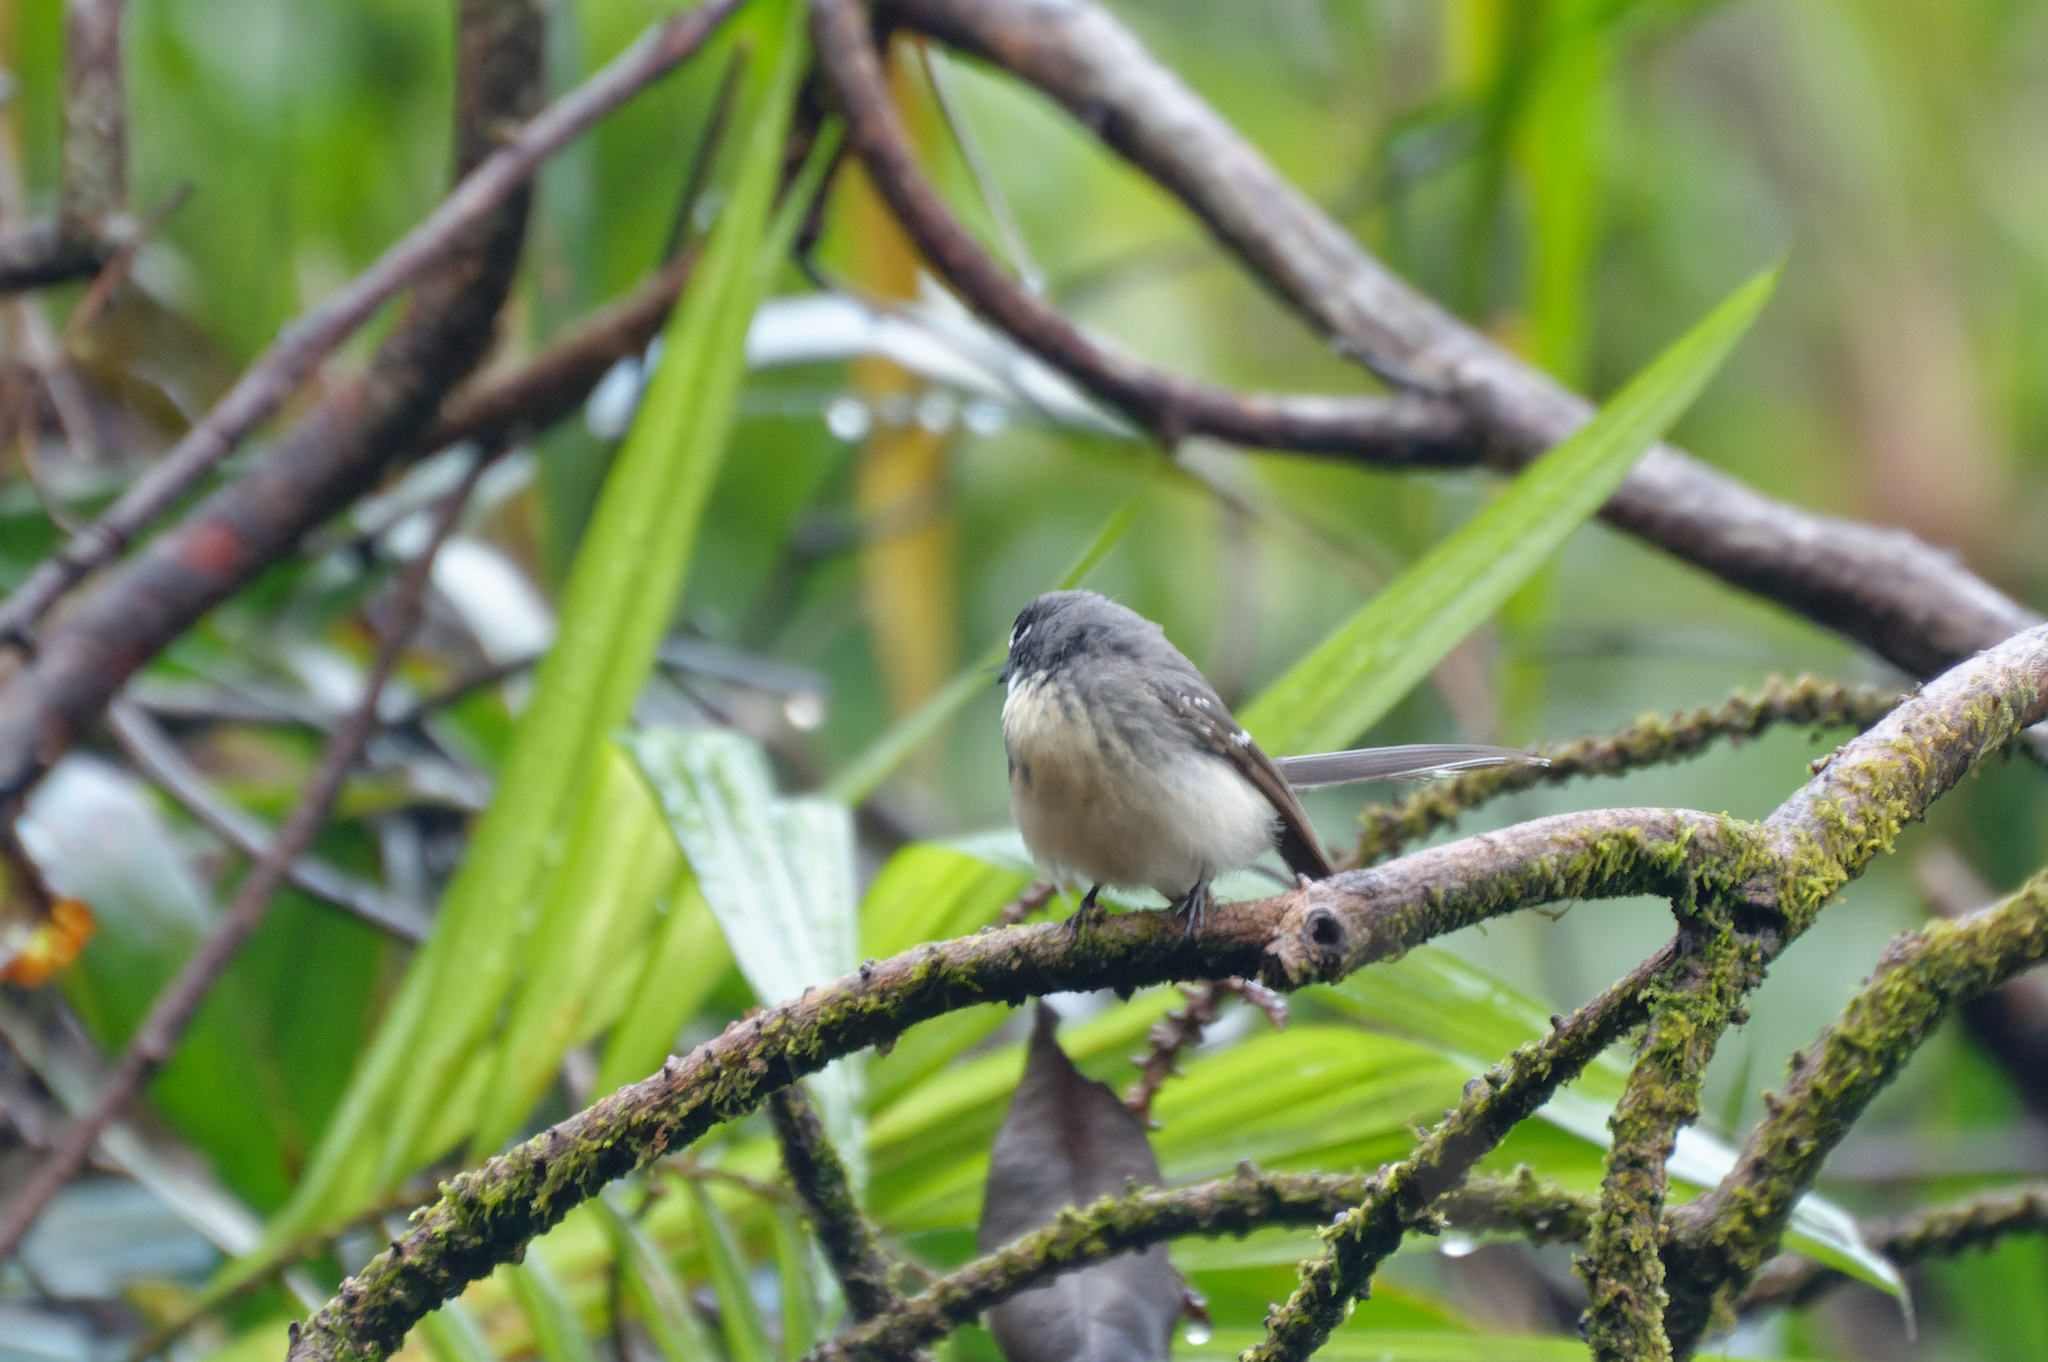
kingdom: Animalia
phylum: Chordata
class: Aves
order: Passeriformes
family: Rhipiduridae
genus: Rhipidura
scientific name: Rhipidura albiscapa
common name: Grey fantail
